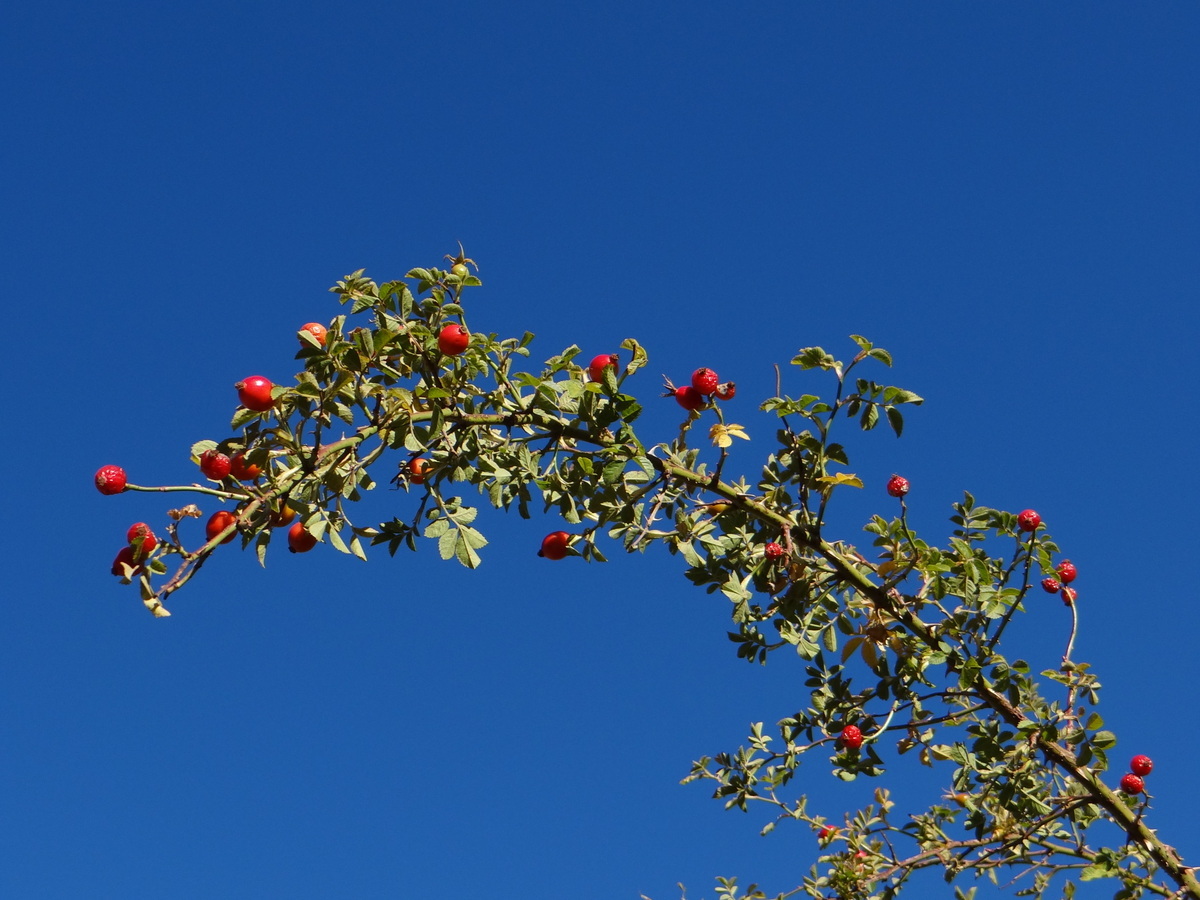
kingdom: Plantae
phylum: Tracheophyta
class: Magnoliopsida
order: Rosales
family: Rosaceae
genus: Rosa
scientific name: Rosa pulverulenta
